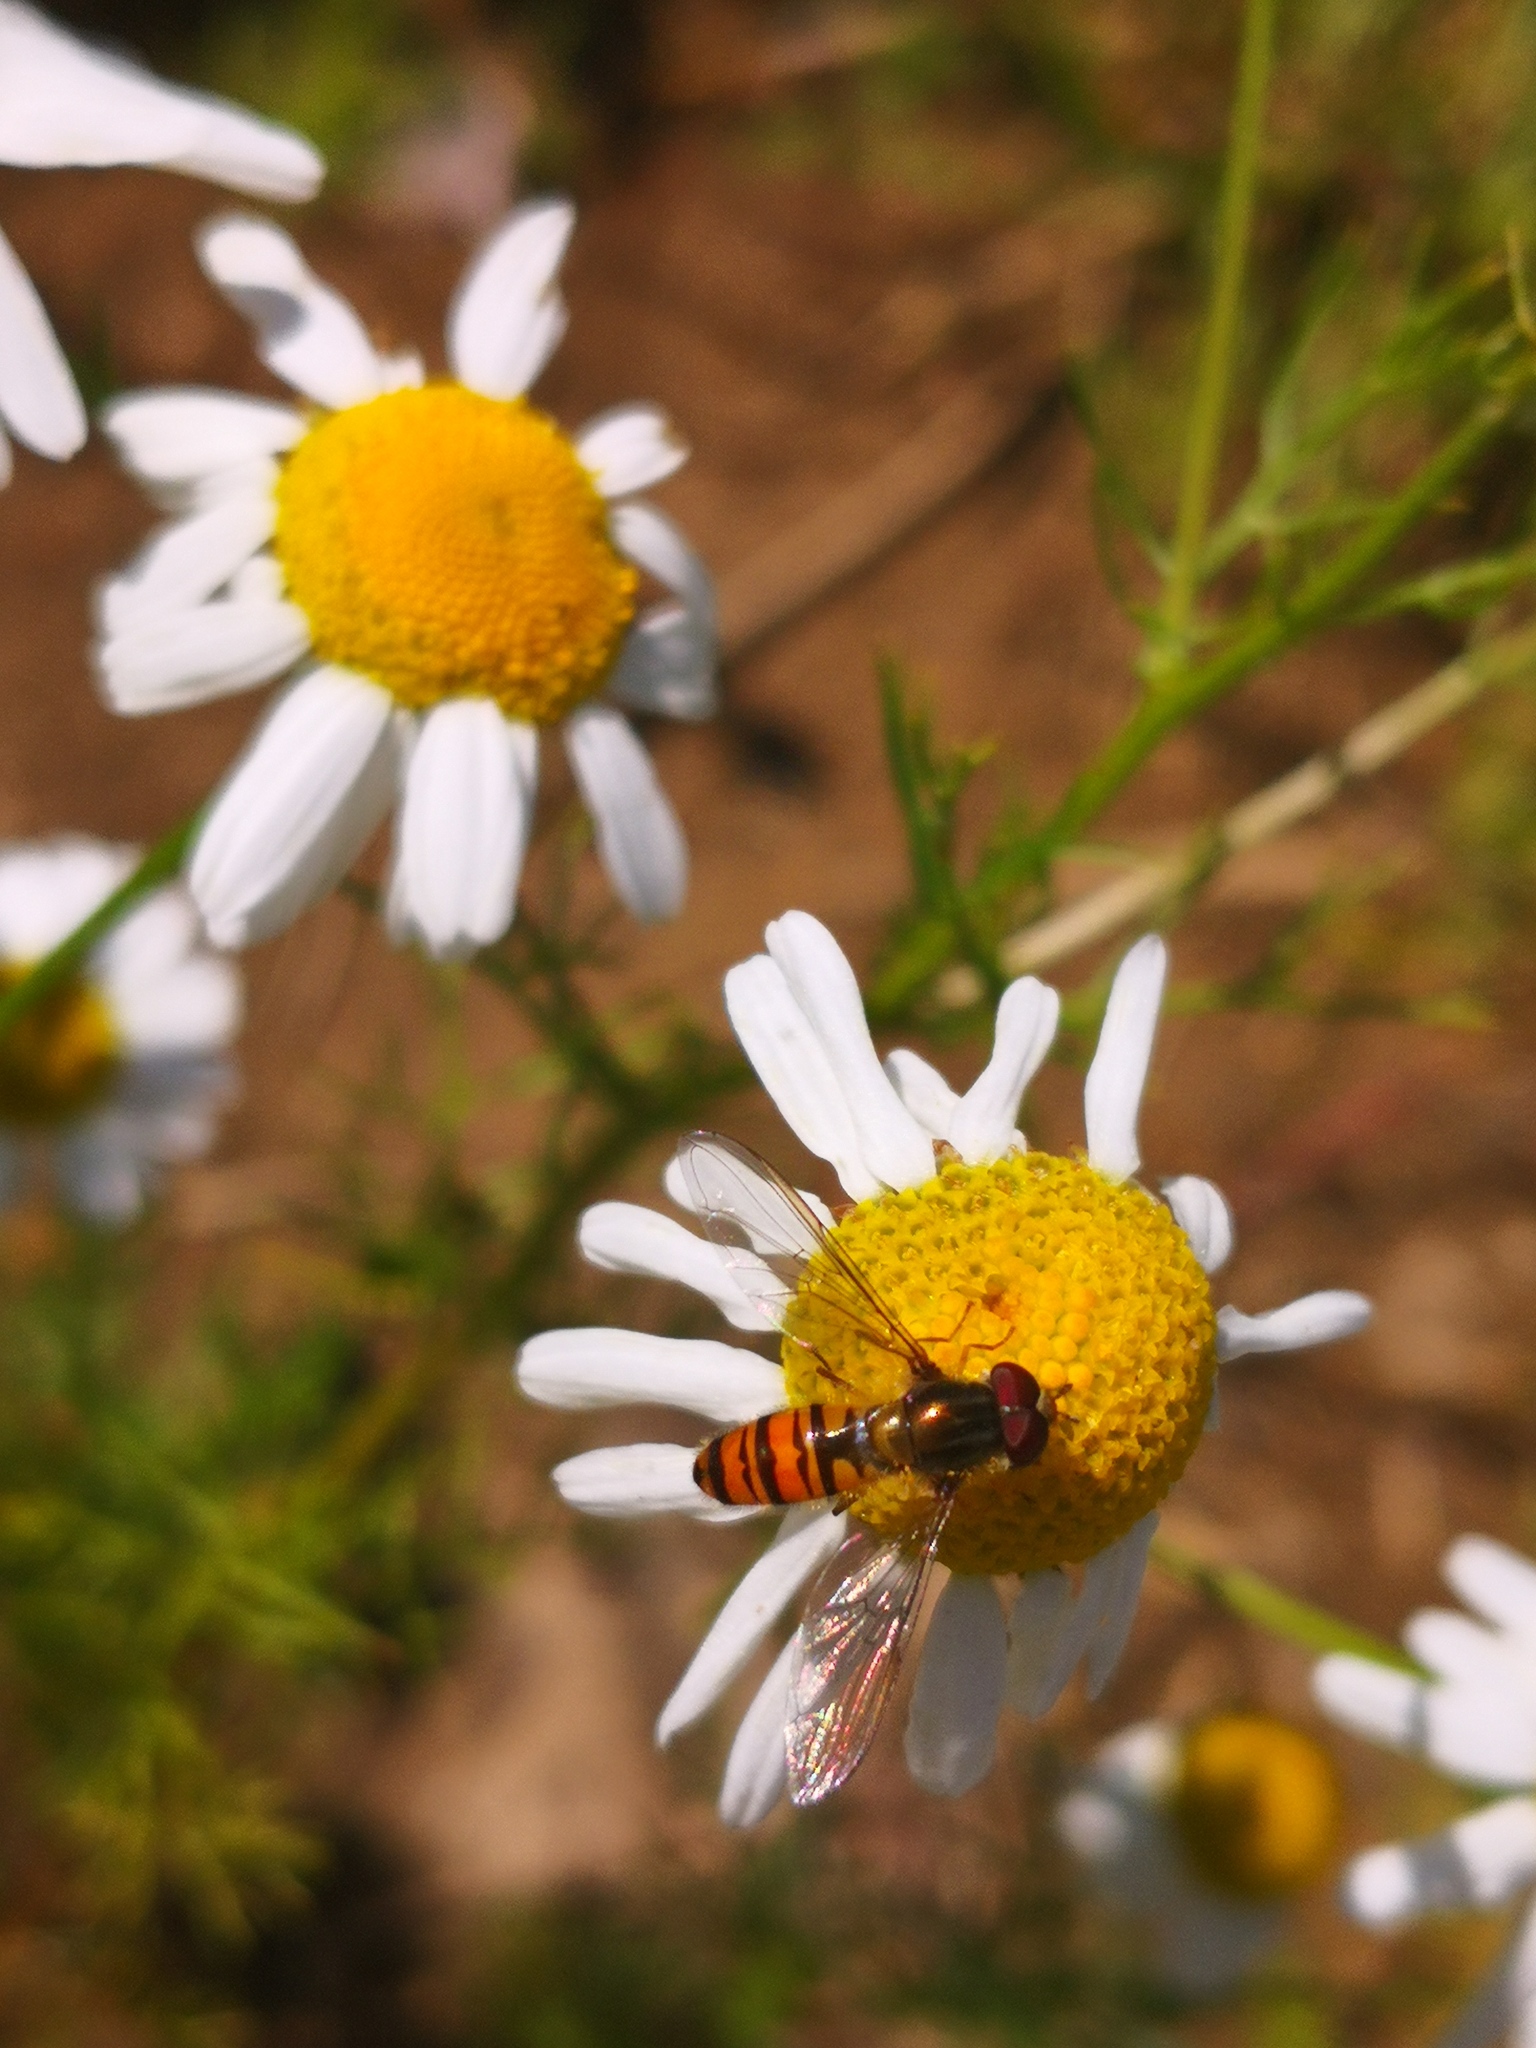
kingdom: Animalia
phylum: Arthropoda
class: Insecta
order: Diptera
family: Syrphidae
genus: Episyrphus
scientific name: Episyrphus balteatus
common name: Marmalade hoverfly
